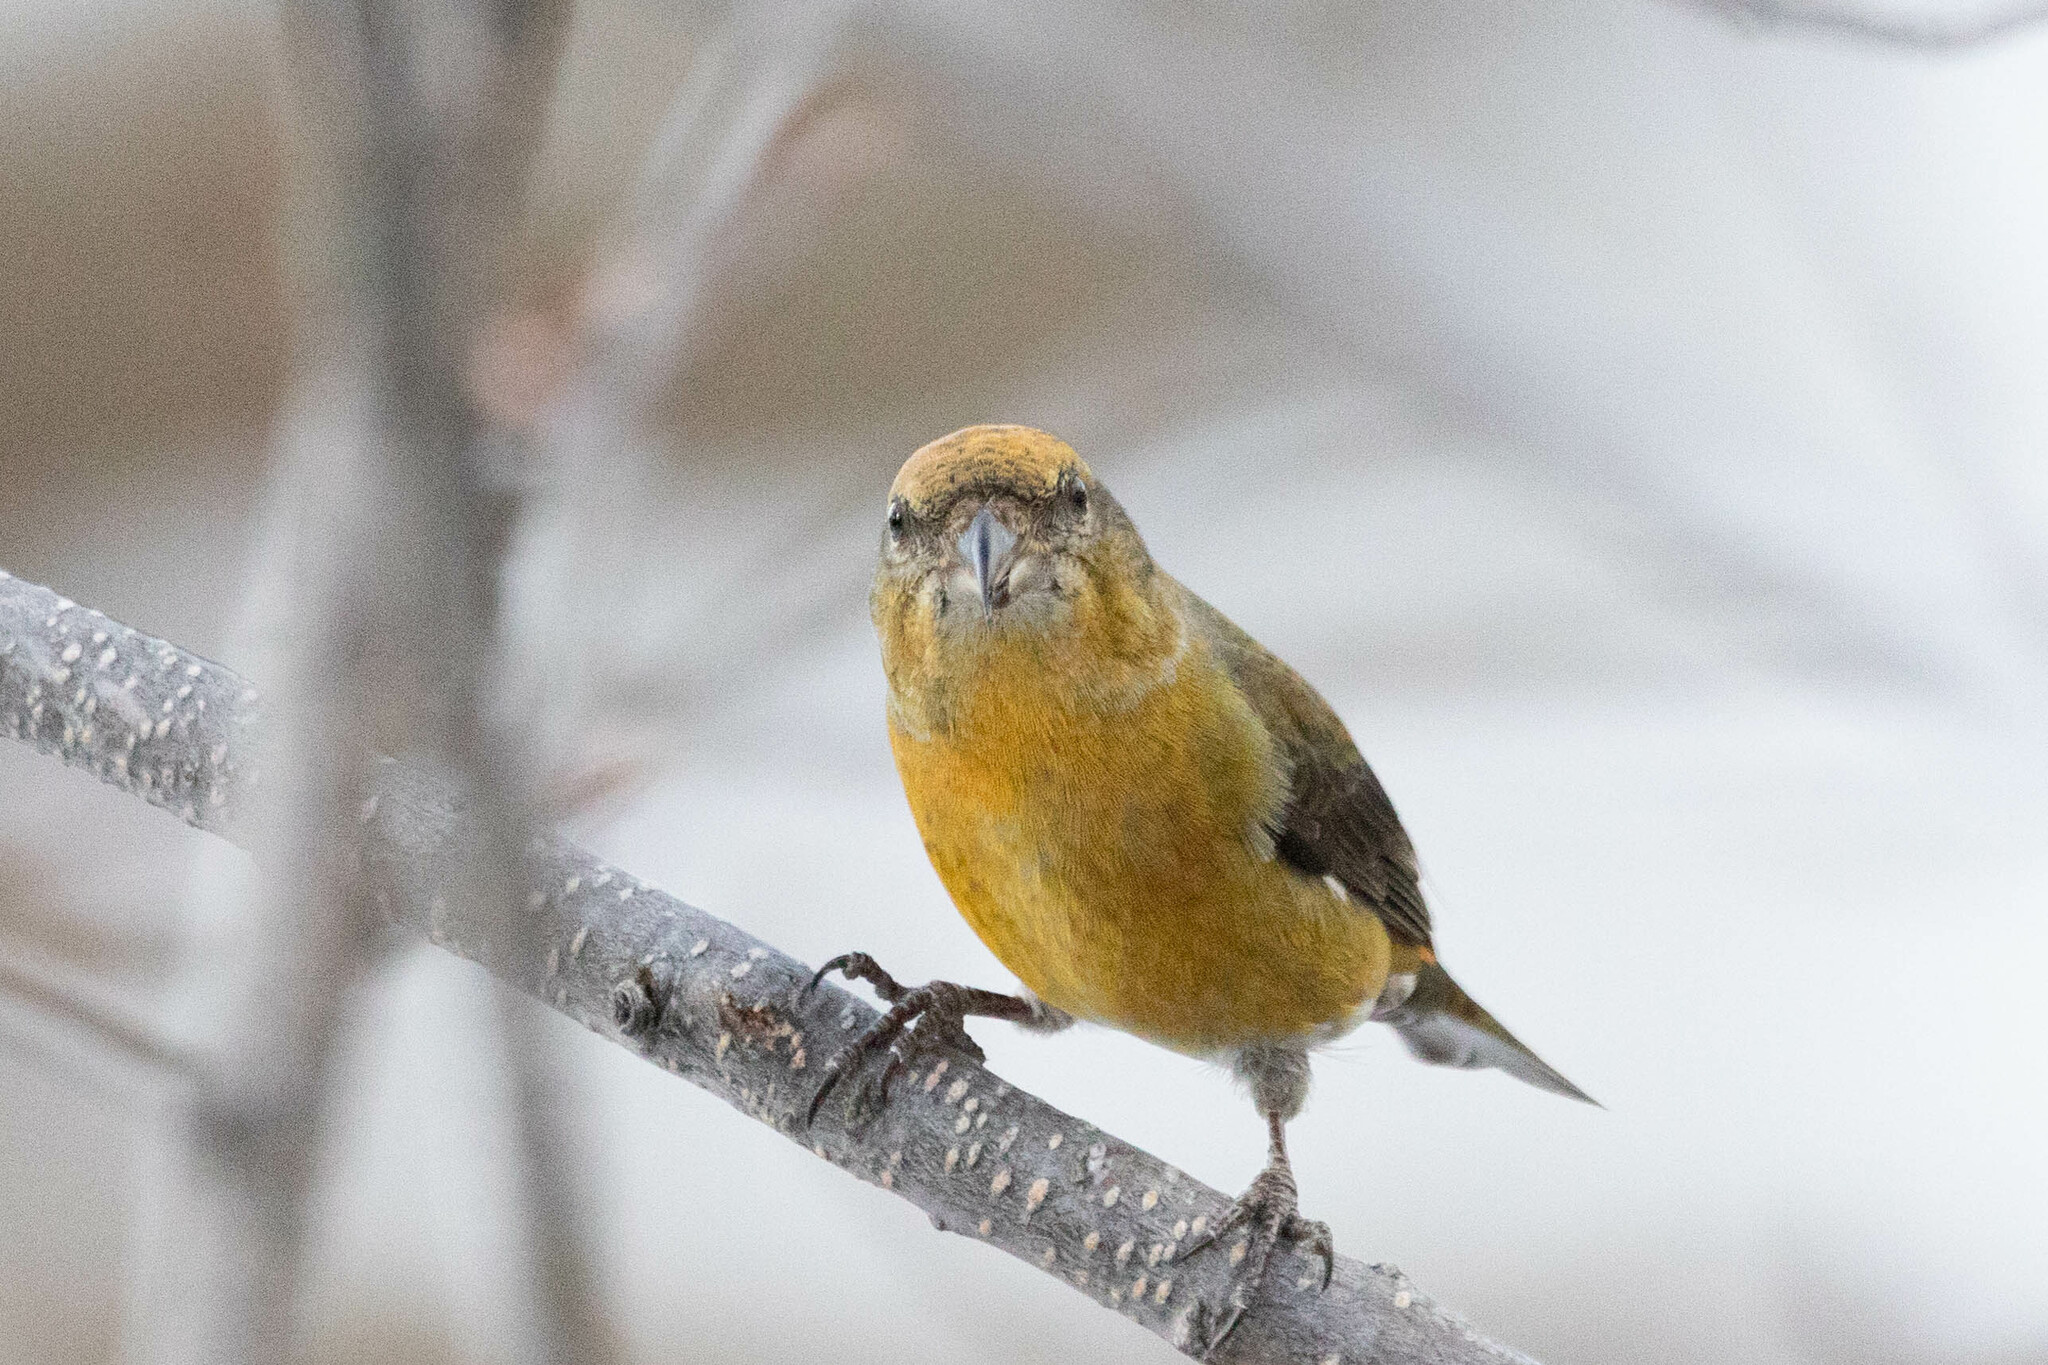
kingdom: Animalia
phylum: Chordata
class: Aves
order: Passeriformes
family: Fringillidae
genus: Loxia
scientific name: Loxia curvirostra
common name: Red crossbill
